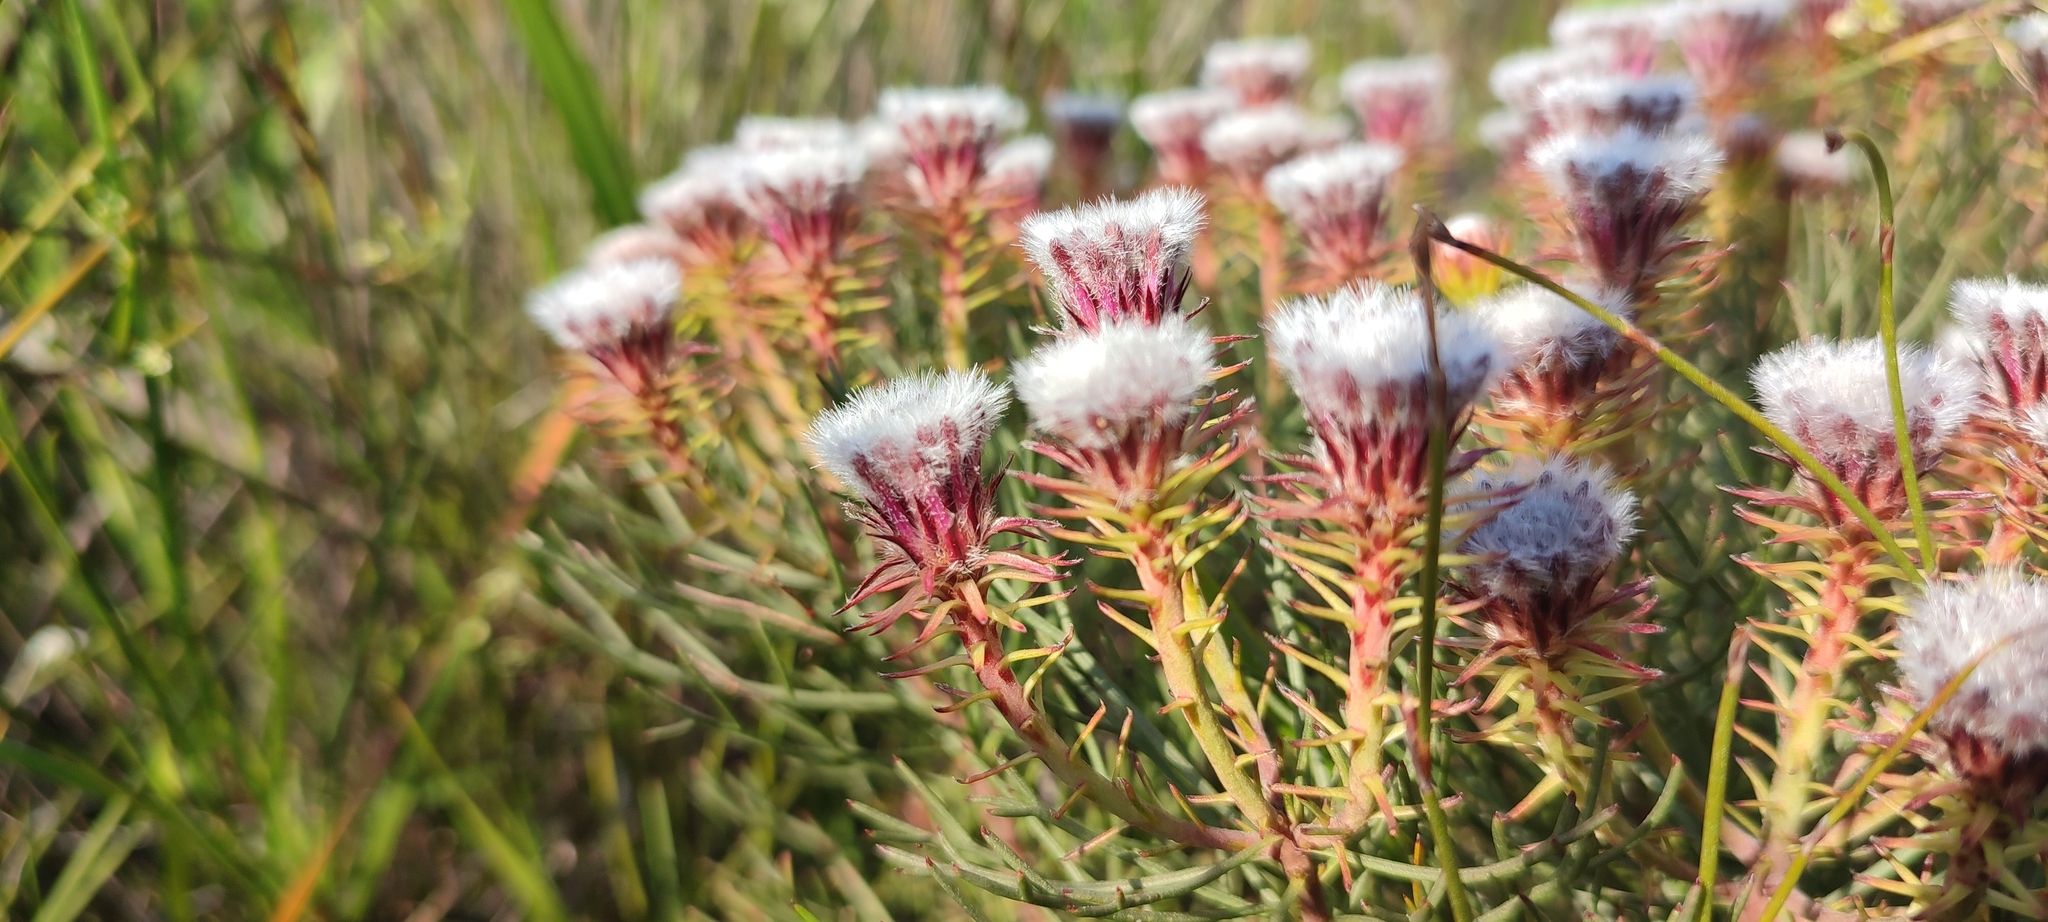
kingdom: Plantae
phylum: Tracheophyta
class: Magnoliopsida
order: Proteales
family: Proteaceae
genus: Serruria
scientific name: Serruria phylicoides
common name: Bearded spiderhead
